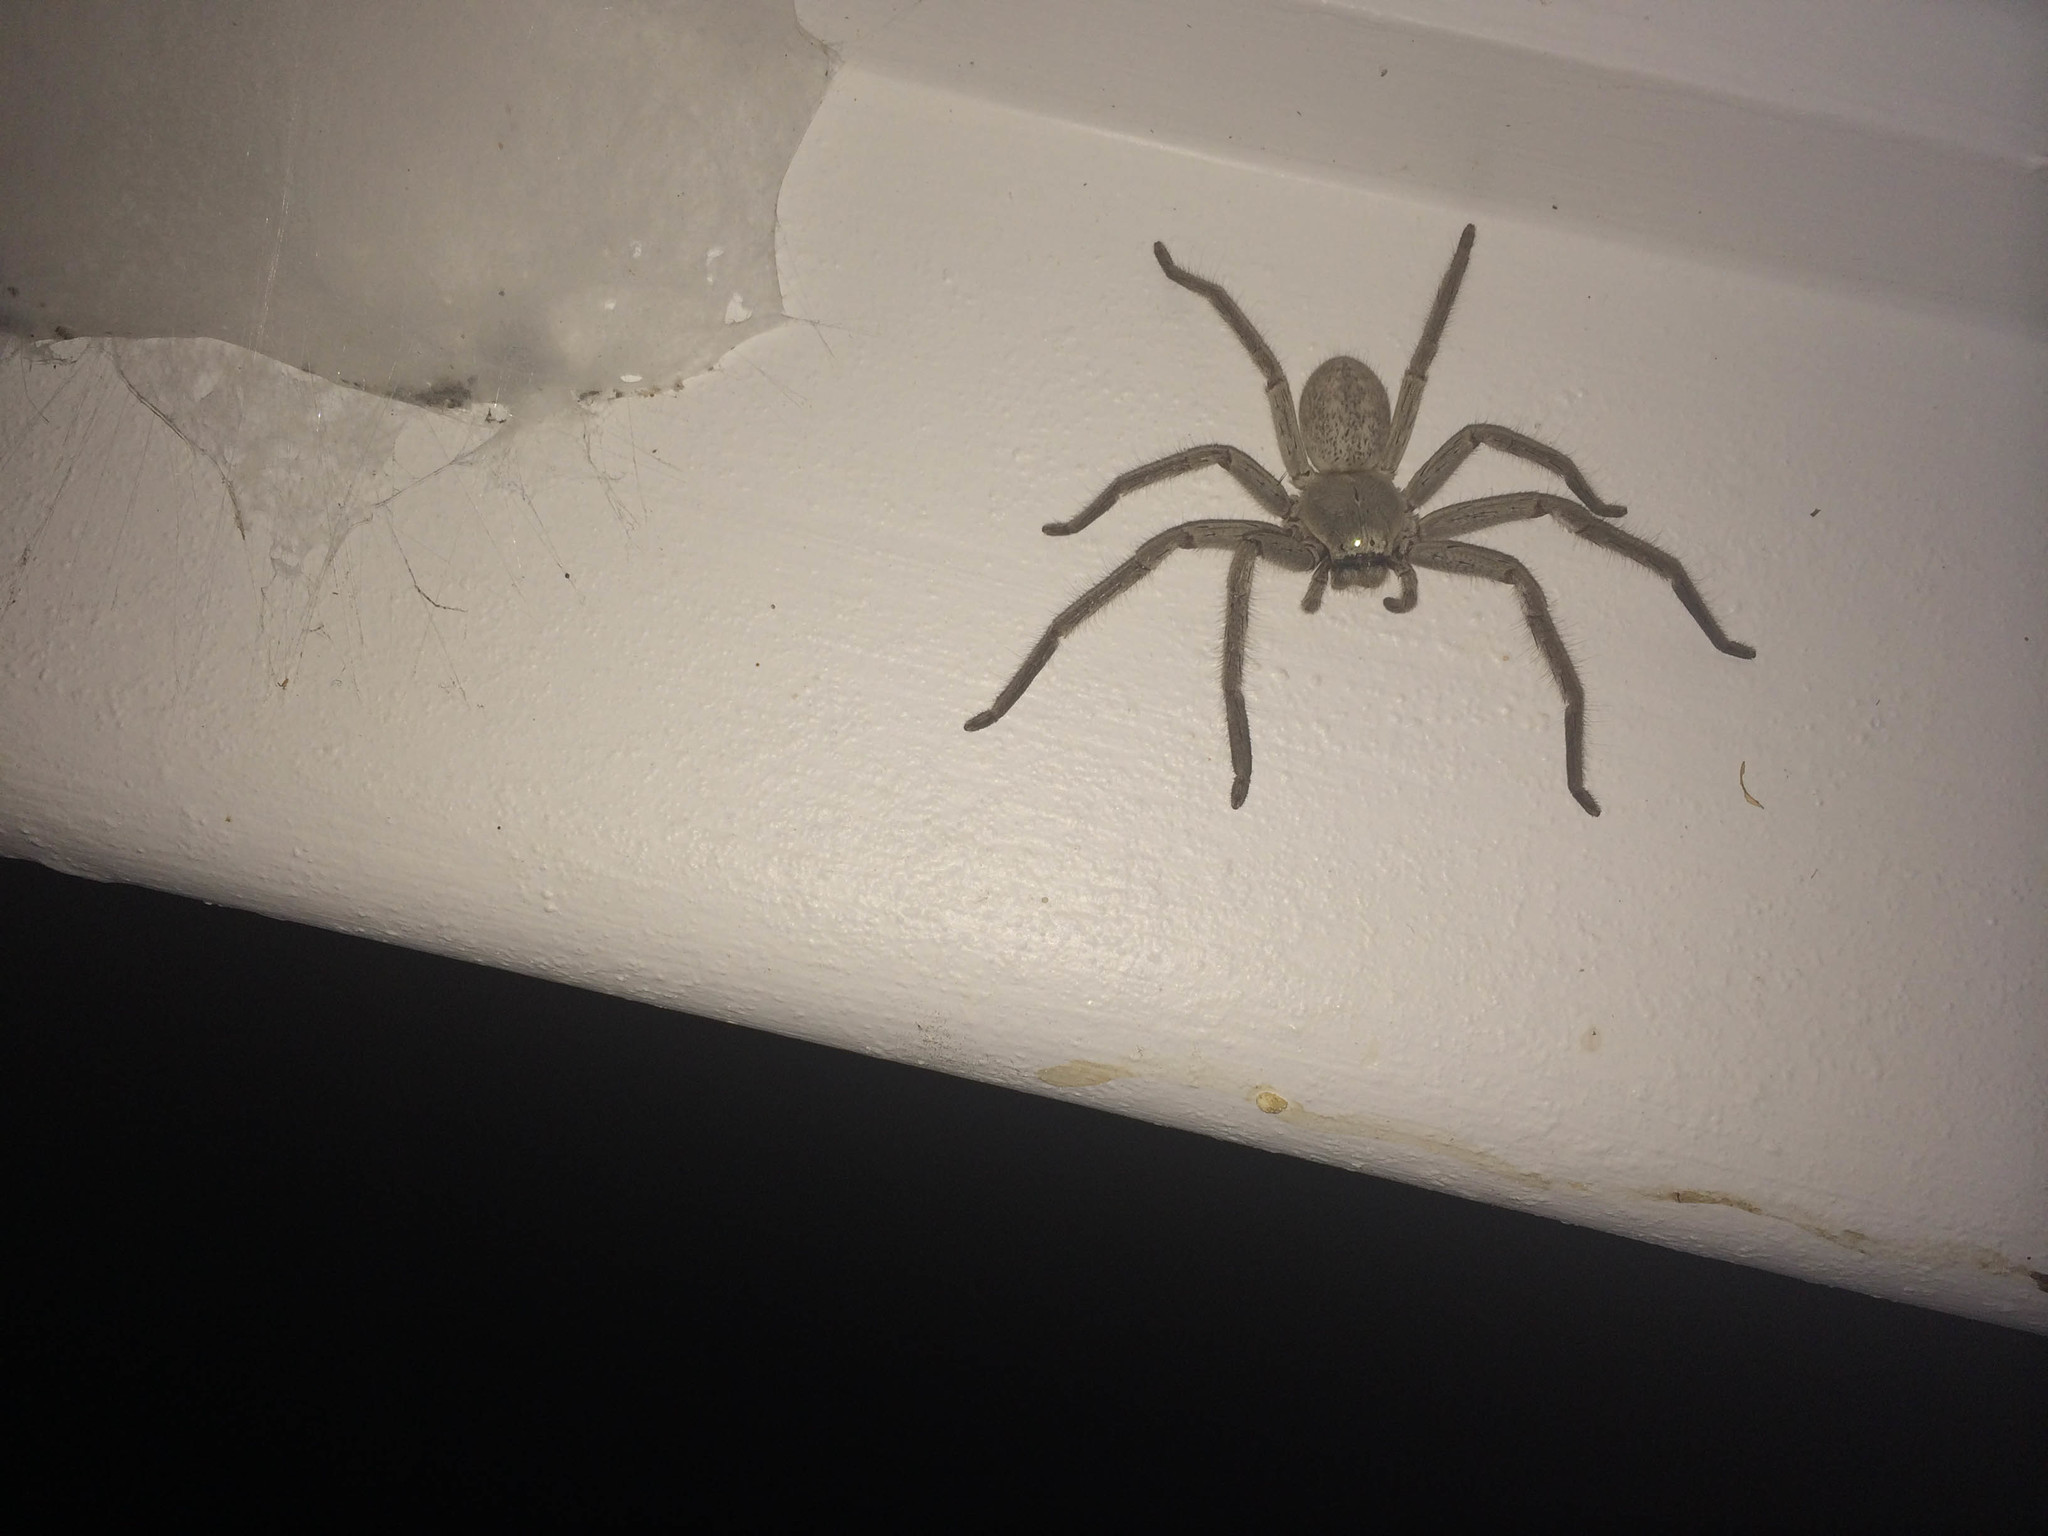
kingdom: Animalia
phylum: Arthropoda
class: Arachnida
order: Araneae
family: Sparassidae
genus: Isopedella
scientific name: Isopedella conspersa
